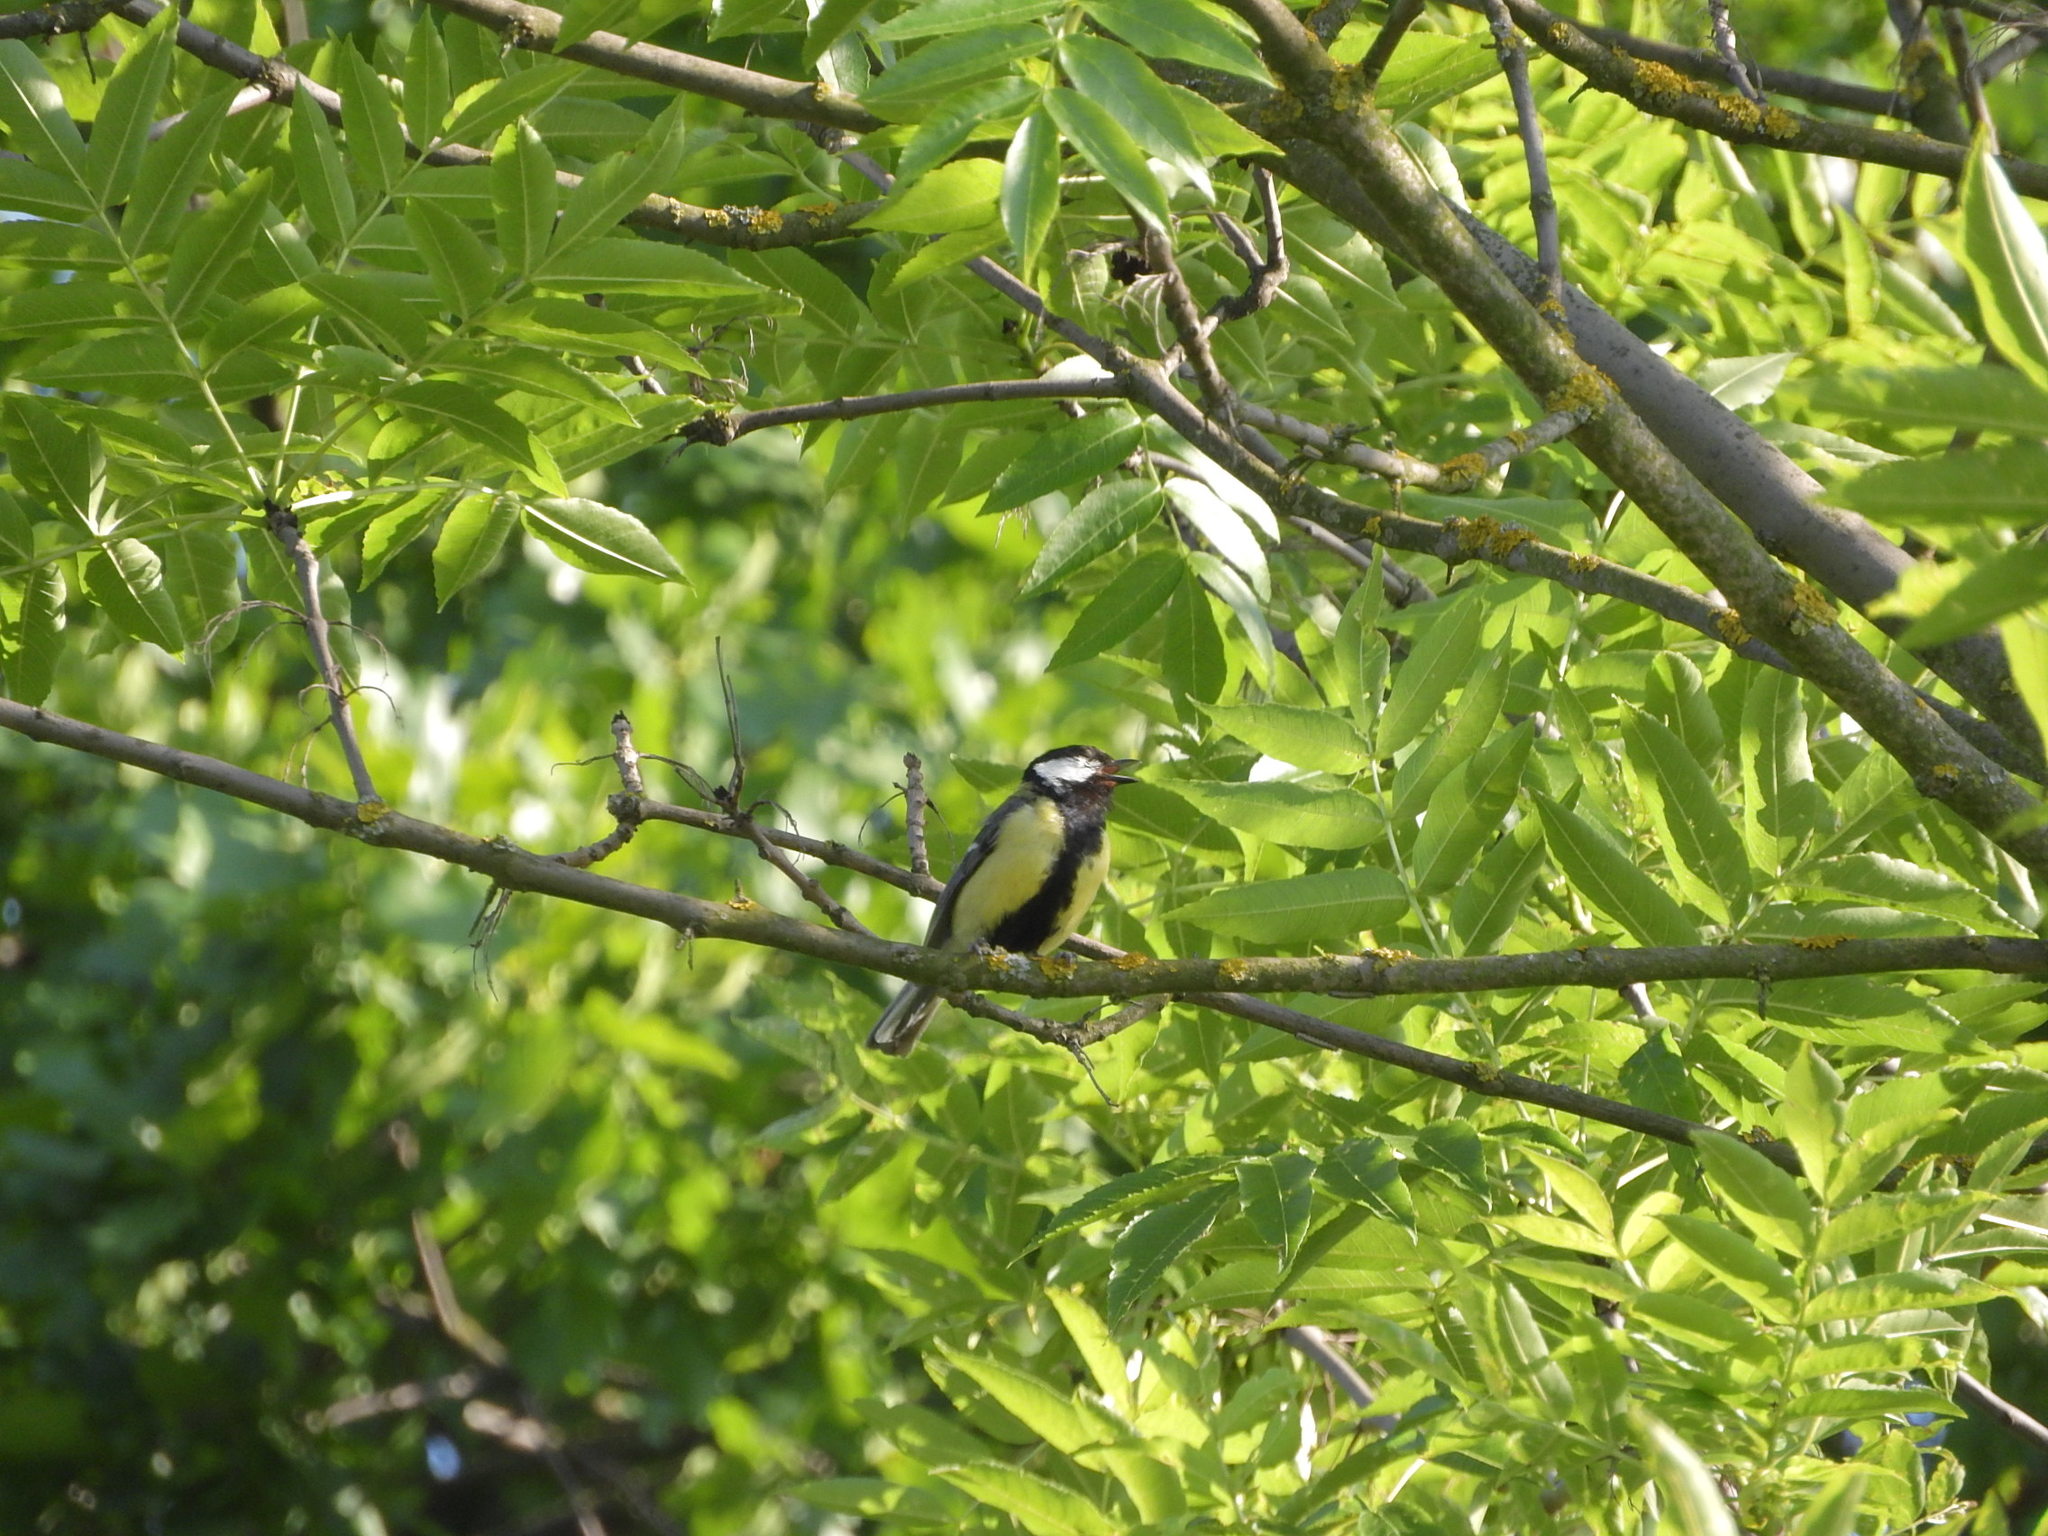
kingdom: Animalia
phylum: Chordata
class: Aves
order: Passeriformes
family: Paridae
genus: Parus
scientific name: Parus major
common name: Great tit
